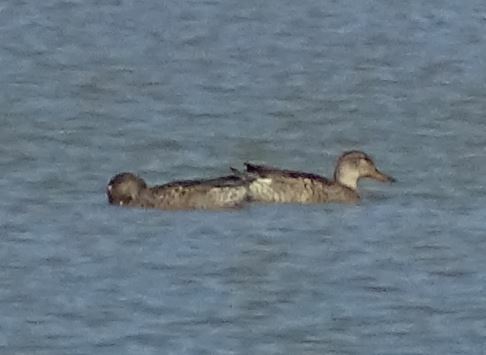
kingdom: Animalia
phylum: Chordata
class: Aves
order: Anseriformes
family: Anatidae
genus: Mareca
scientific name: Mareca strepera
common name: Gadwall
